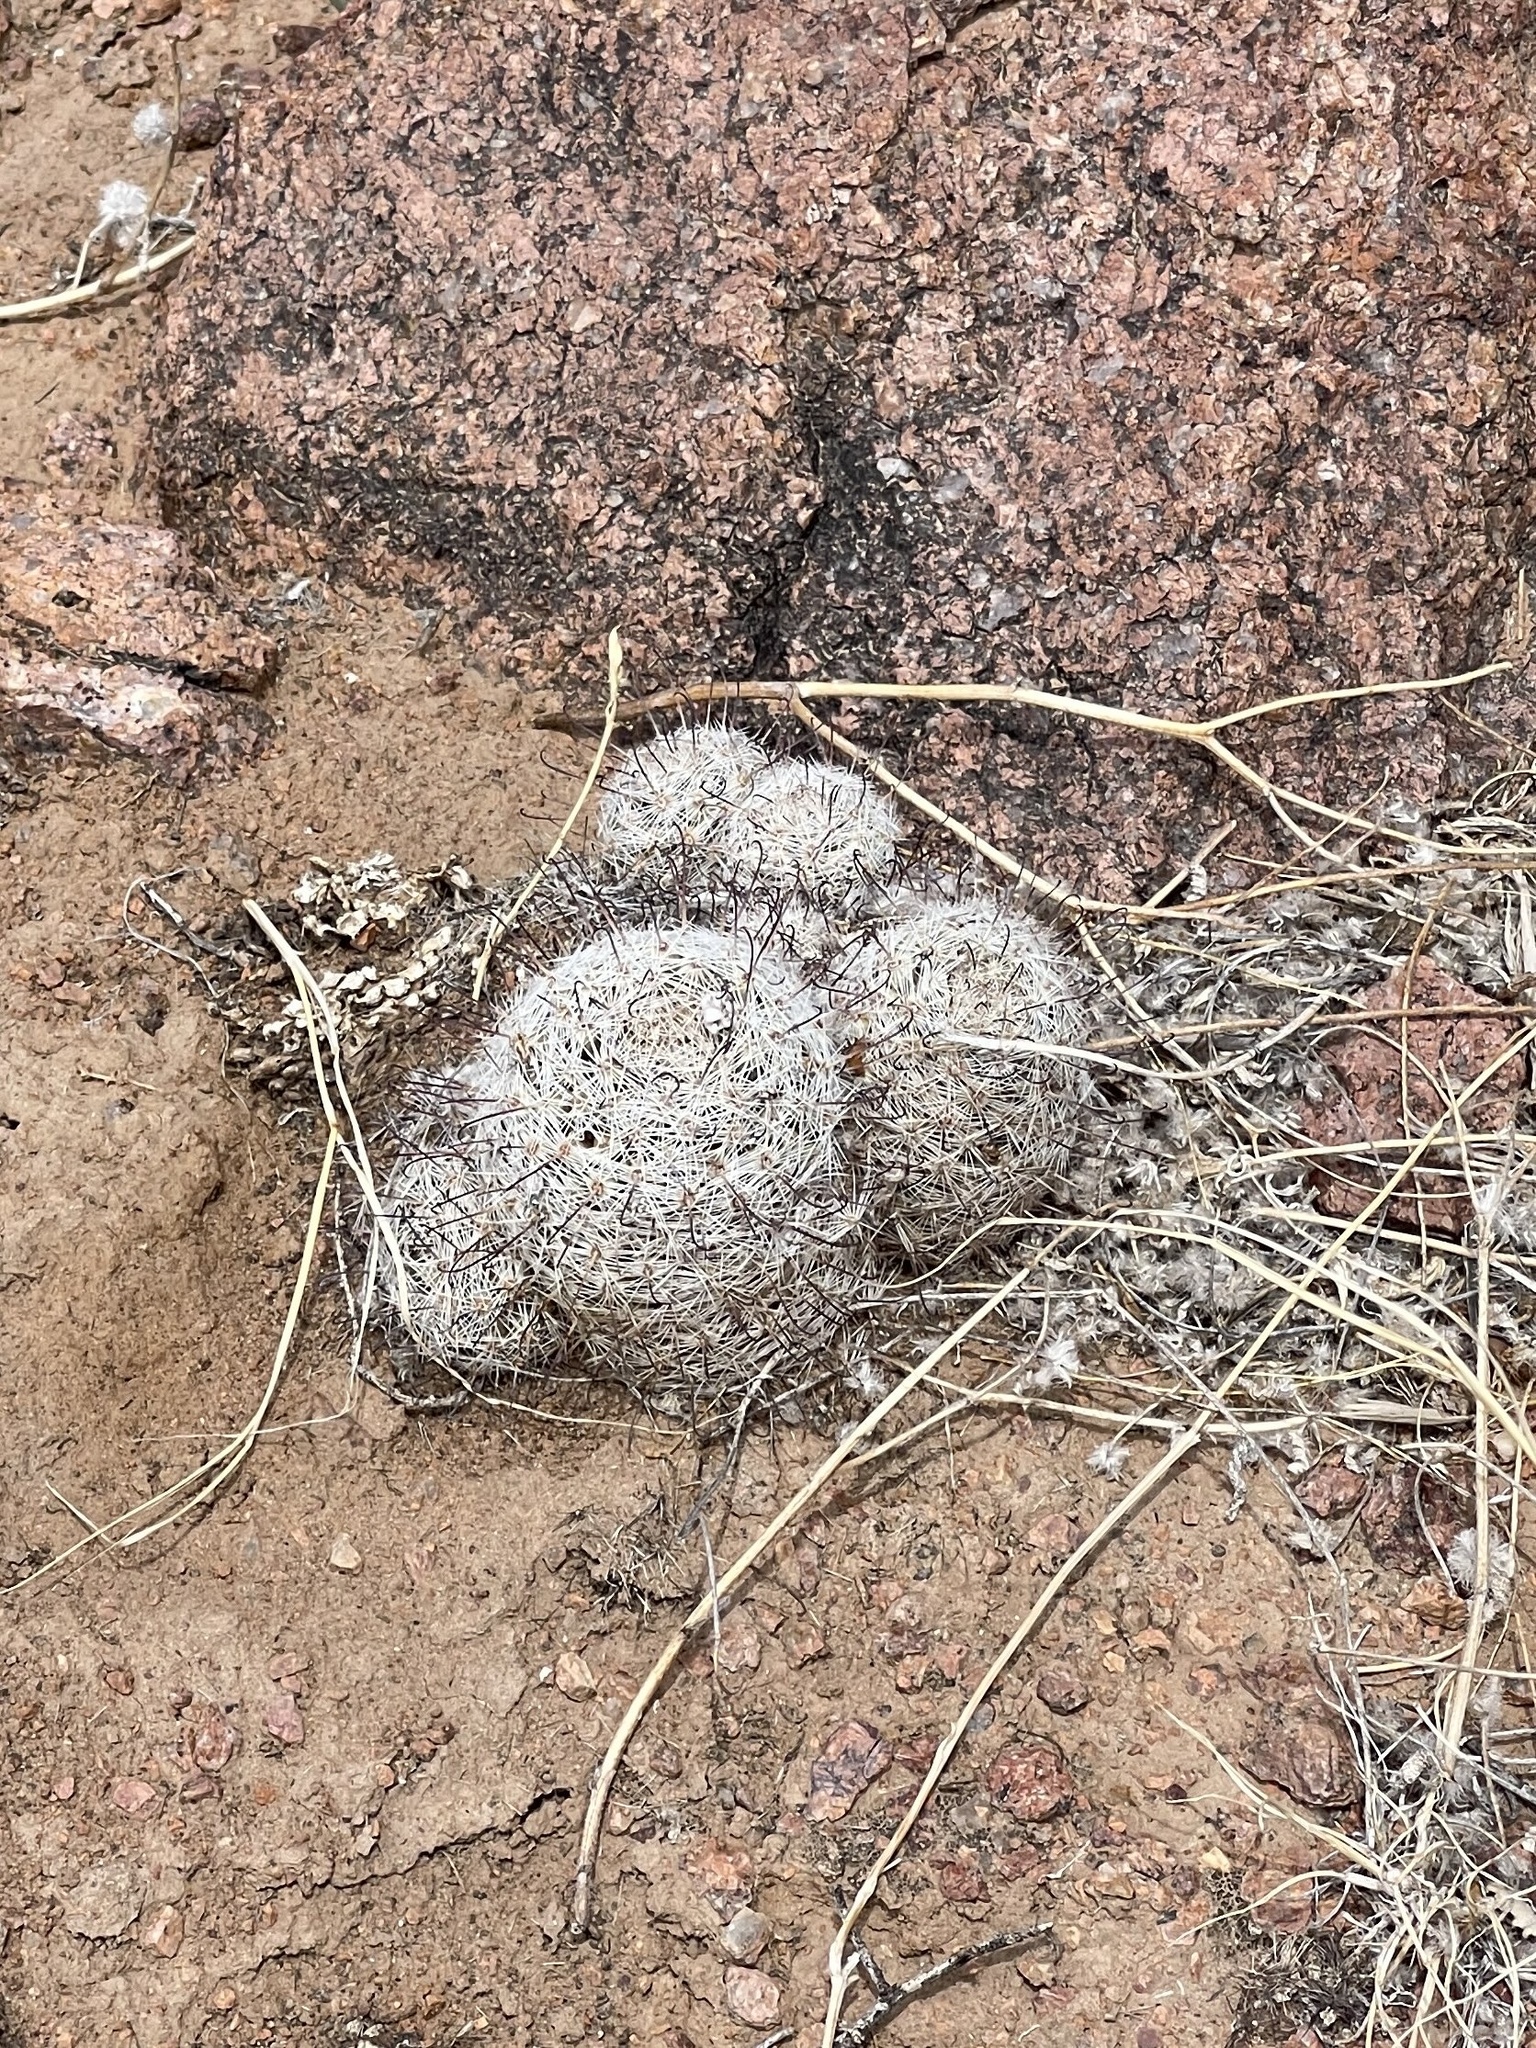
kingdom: Plantae
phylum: Tracheophyta
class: Magnoliopsida
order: Caryophyllales
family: Cactaceae
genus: Cochemiea
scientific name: Cochemiea grahamii
